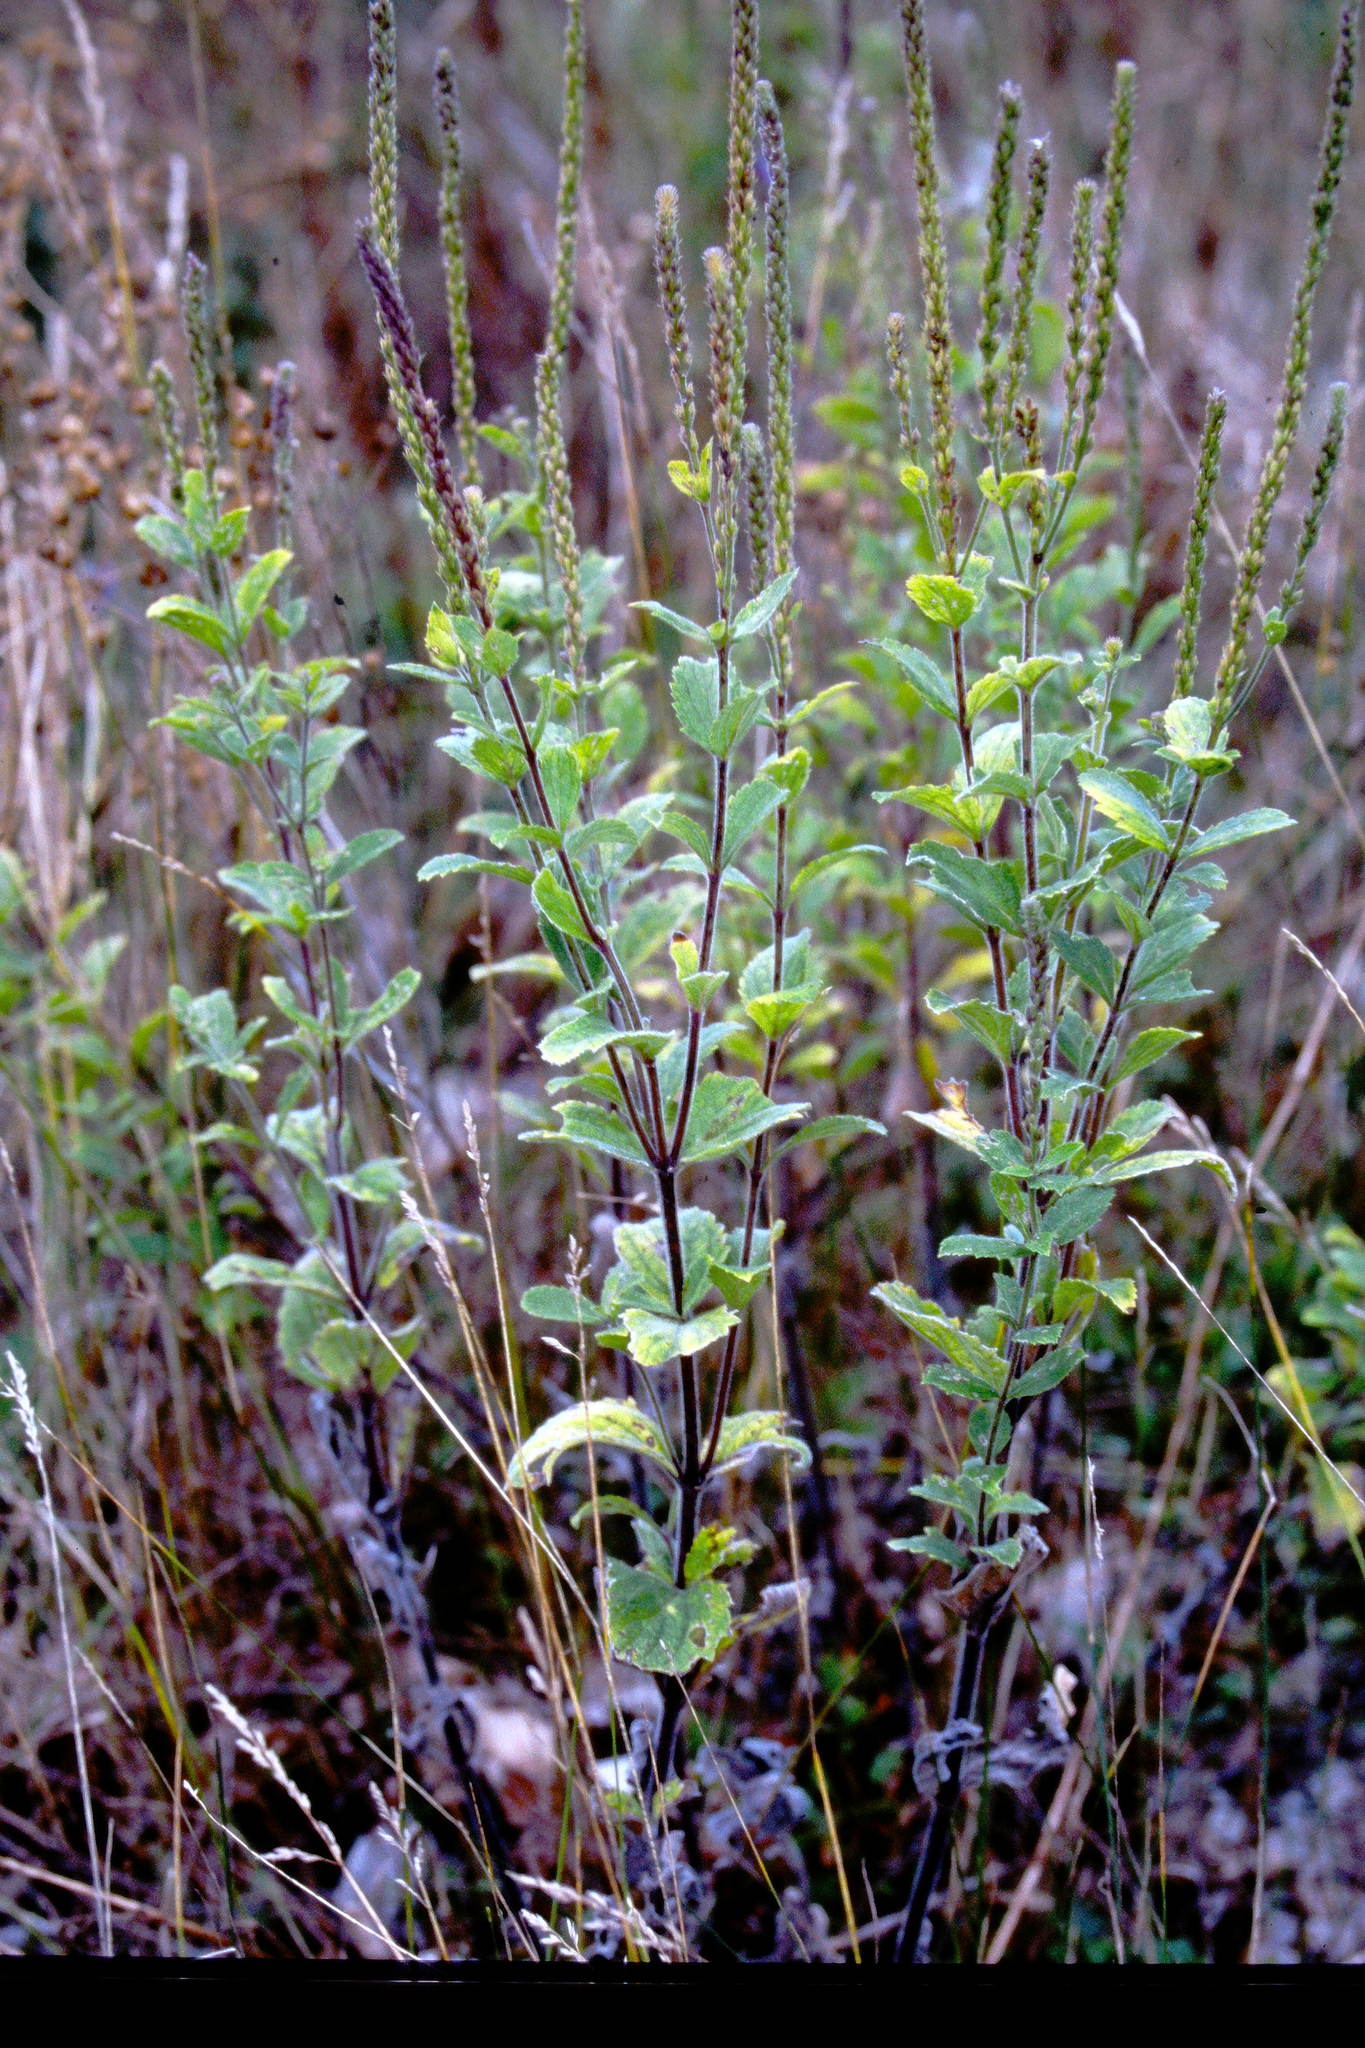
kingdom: Plantae
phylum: Tracheophyta
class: Magnoliopsida
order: Lamiales
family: Verbenaceae
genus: Verbena
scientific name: Verbena stricta
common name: Hoary vervain
